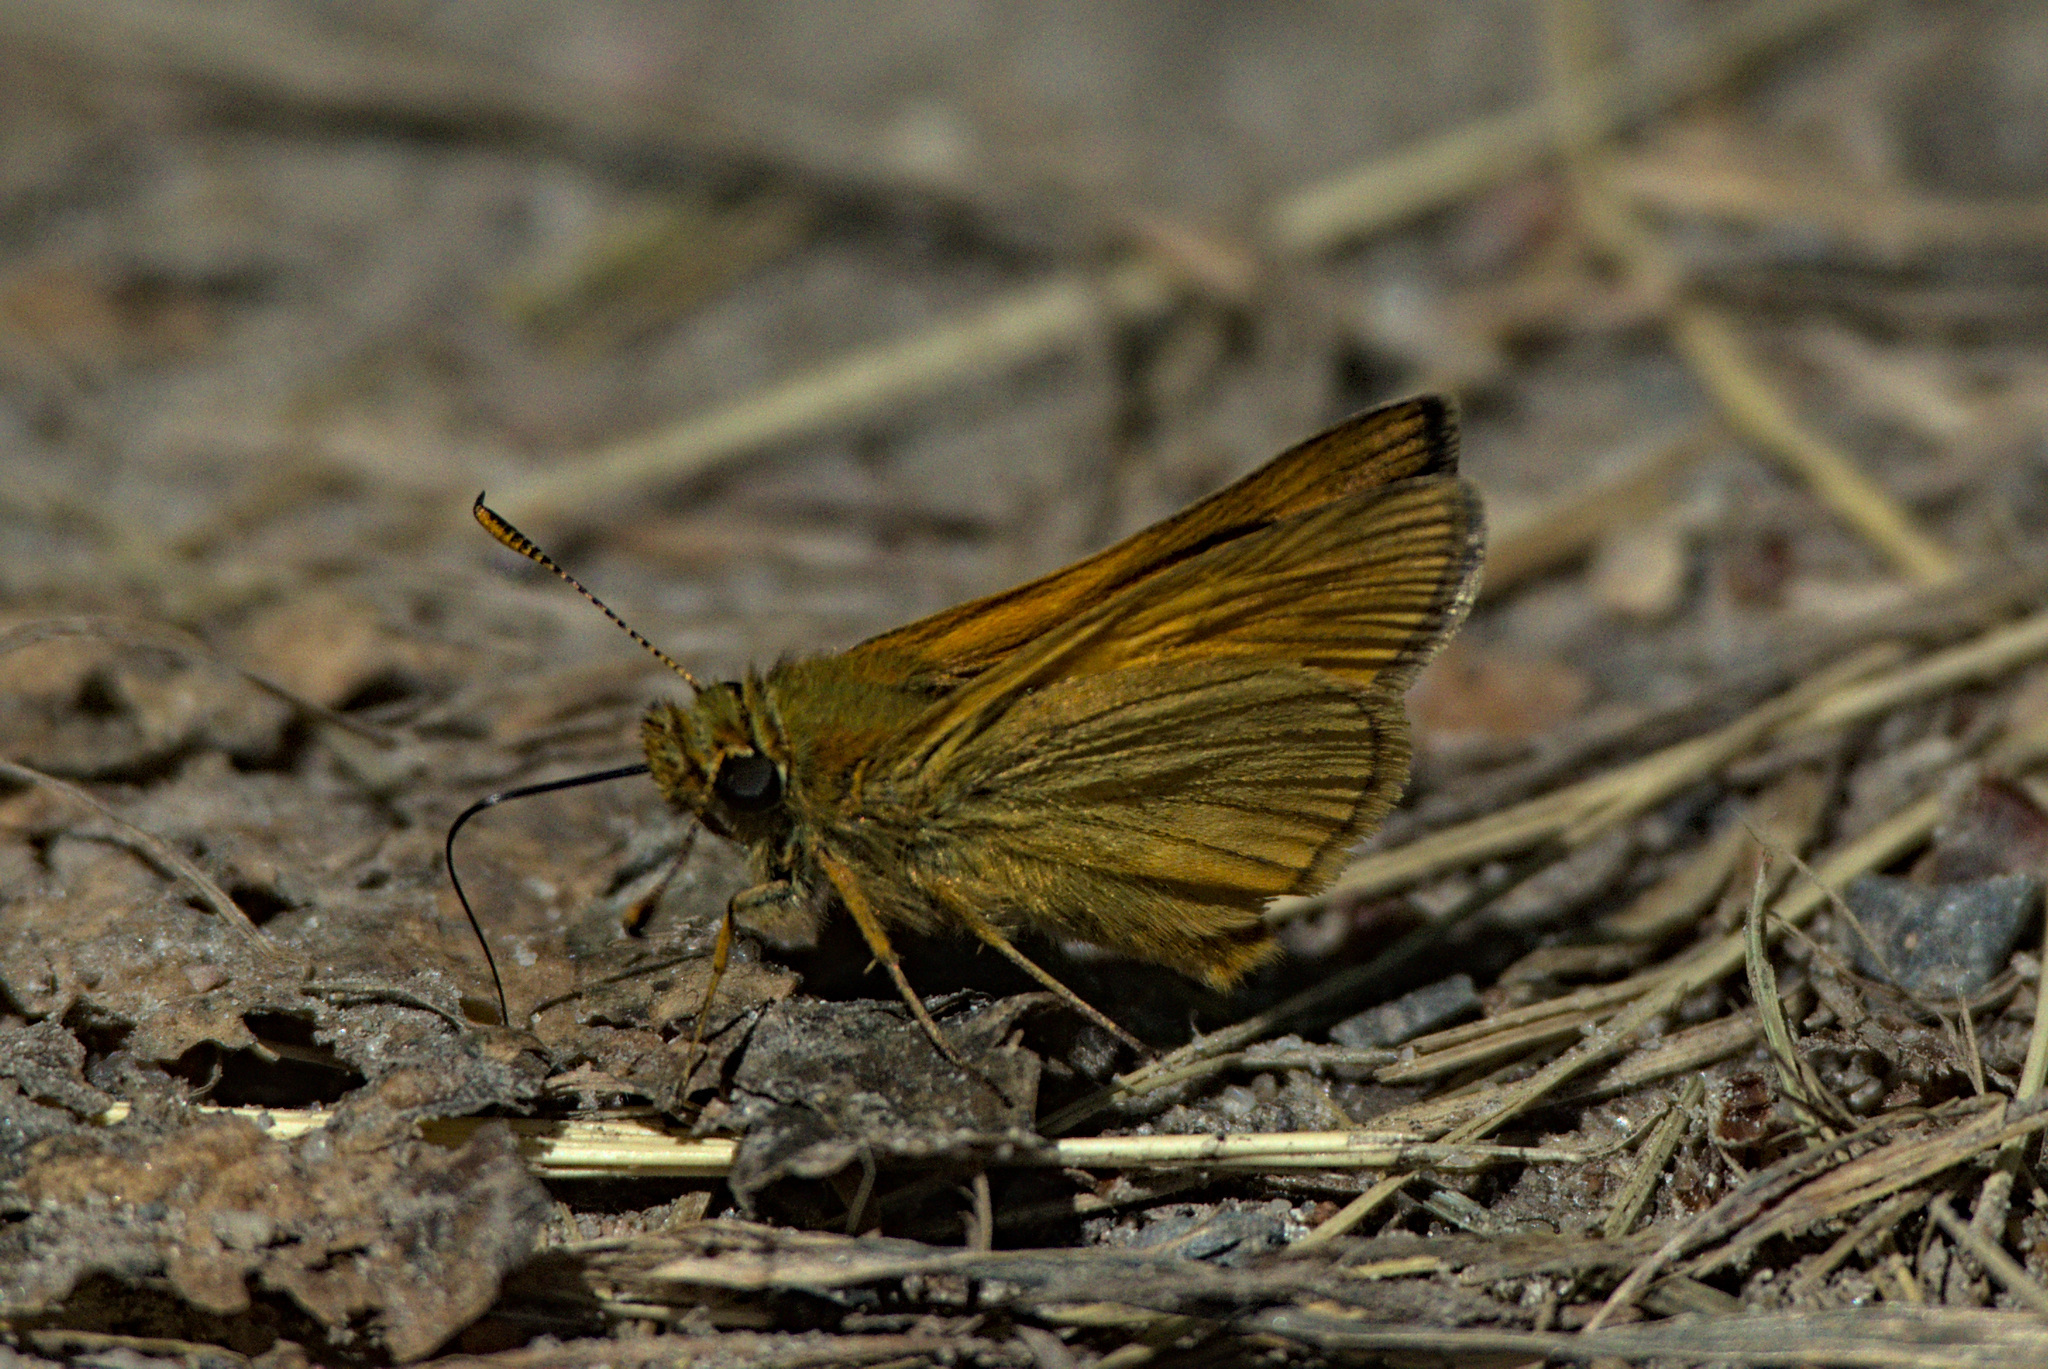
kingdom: Animalia
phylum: Arthropoda
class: Insecta
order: Lepidoptera
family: Hesperiidae
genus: Ochlodes
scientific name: Ochlodes venata
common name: Large skipper
